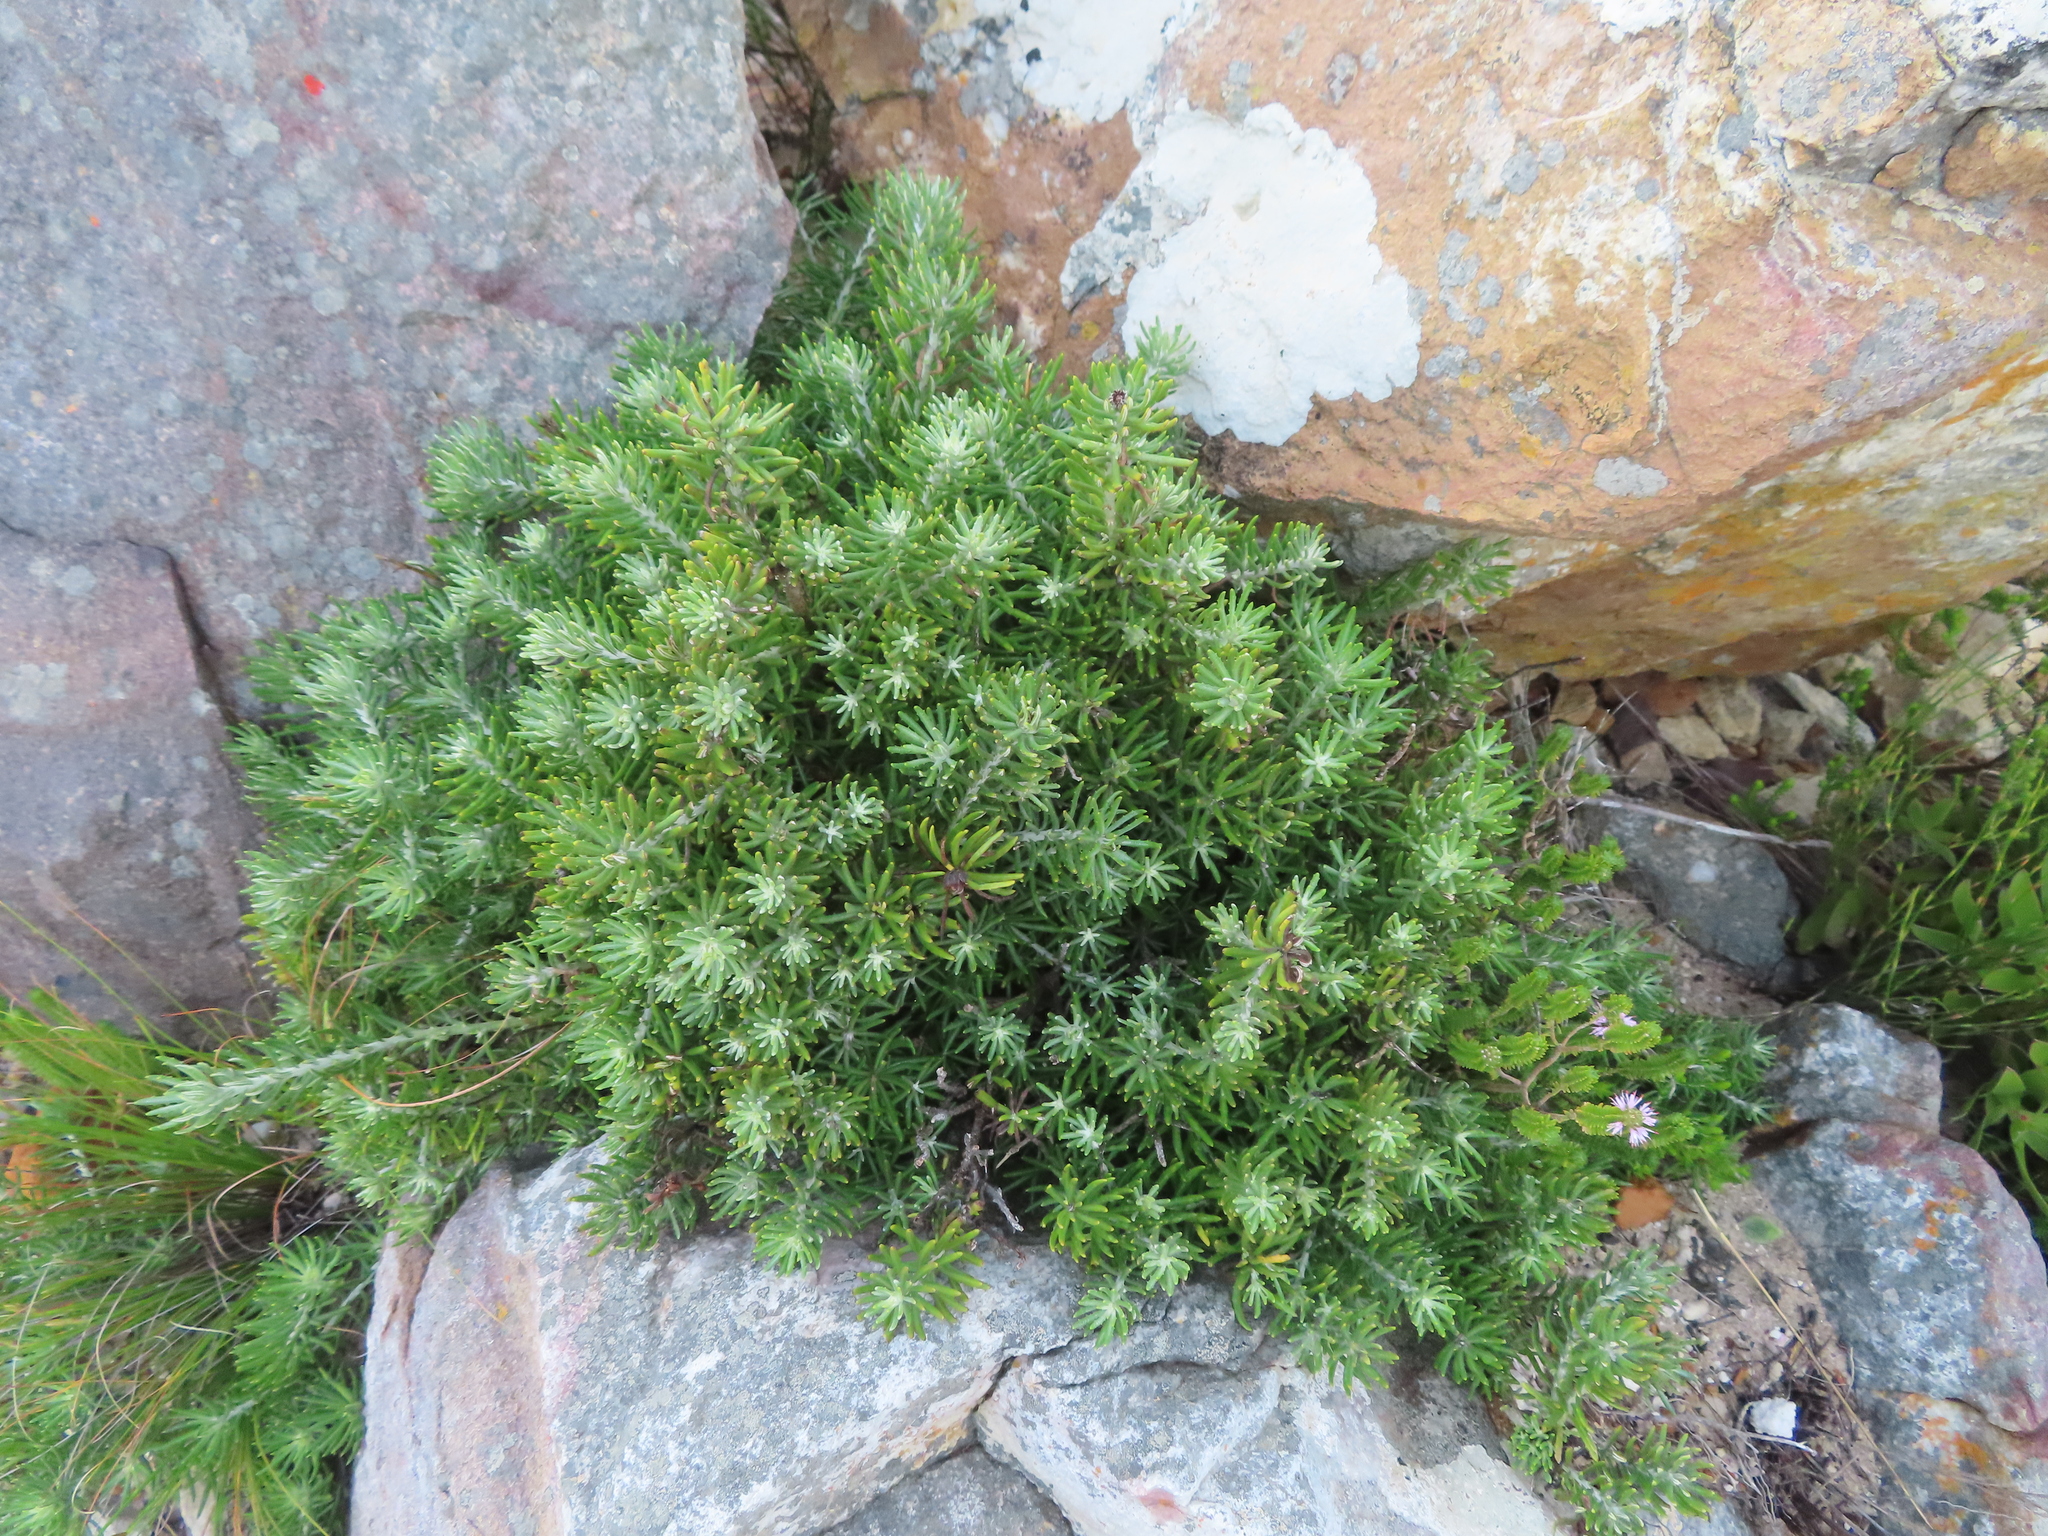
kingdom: Plantae
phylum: Tracheophyta
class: Magnoliopsida
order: Asterales
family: Asteraceae
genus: Heterolepis
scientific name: Heterolepis aliena
